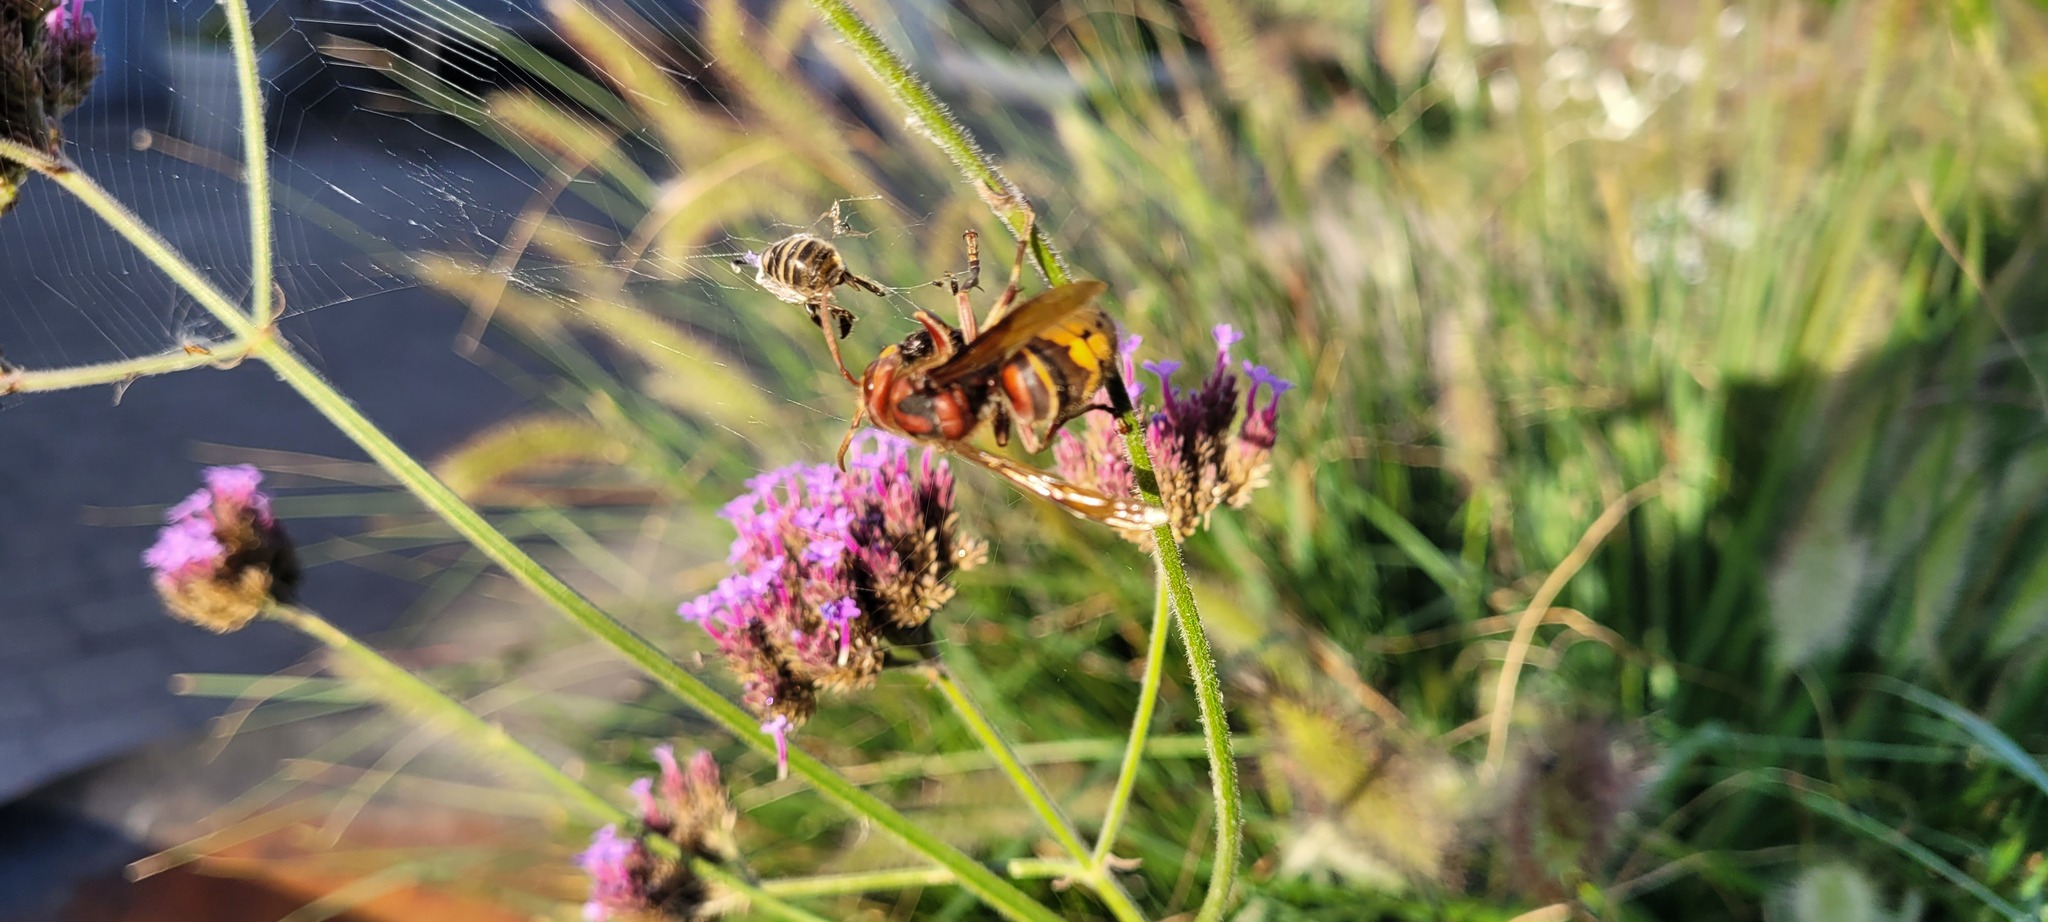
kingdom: Animalia
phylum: Arthropoda
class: Insecta
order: Hymenoptera
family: Vespidae
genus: Vespa
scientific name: Vespa crabro
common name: Hornet
